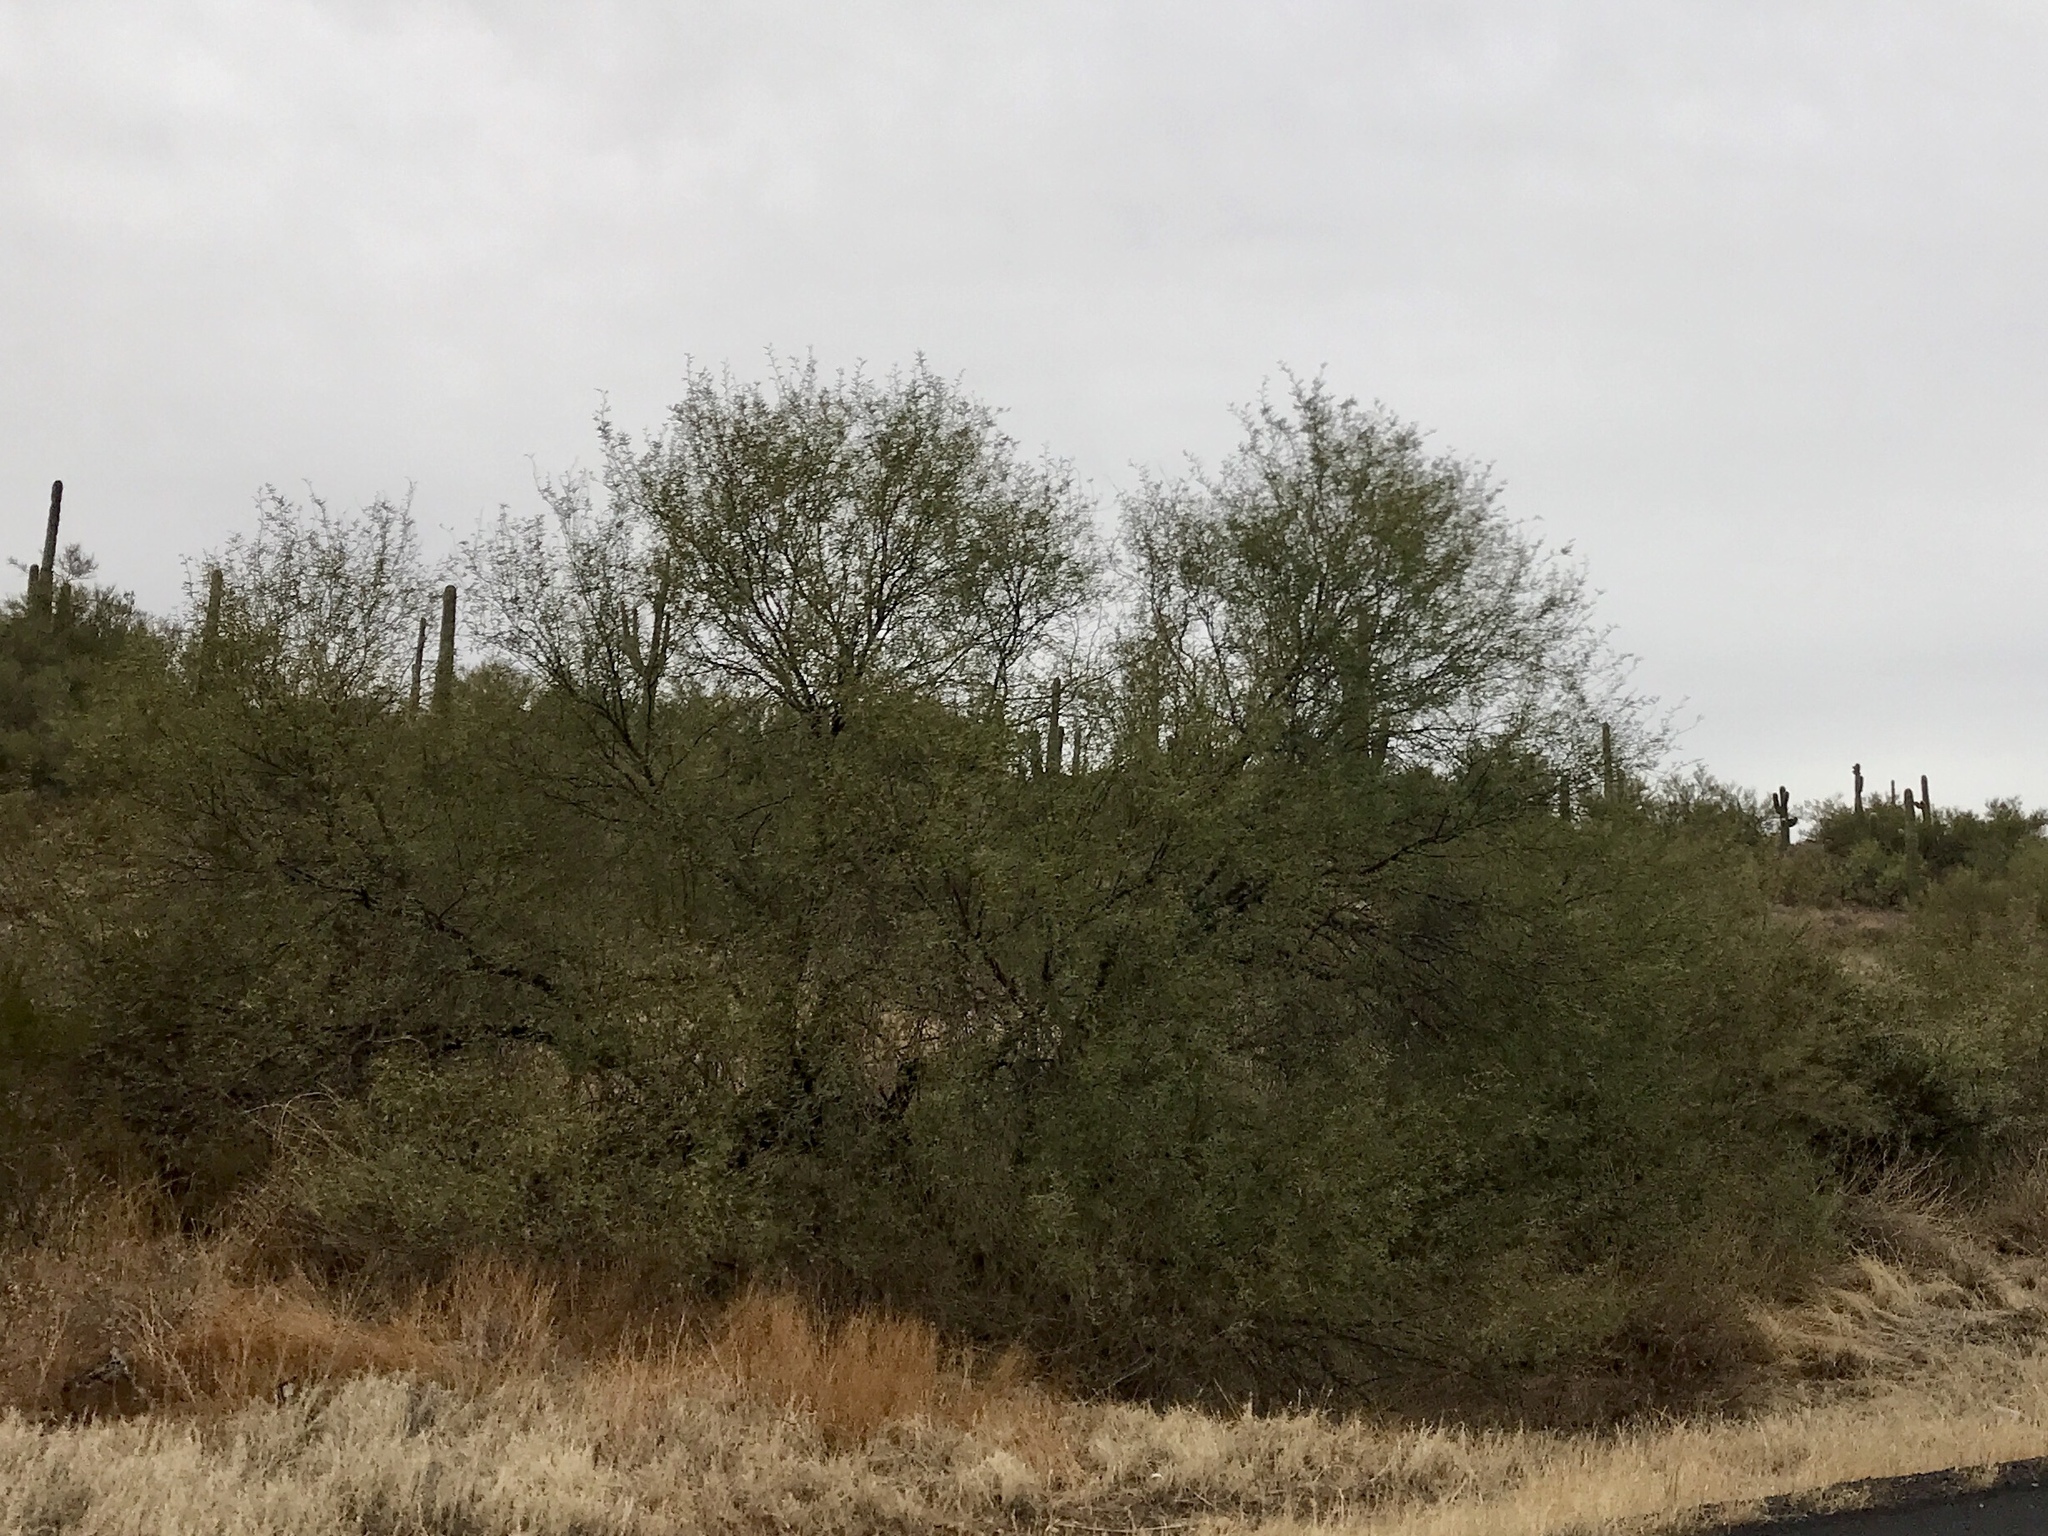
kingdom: Plantae
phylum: Tracheophyta
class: Magnoliopsida
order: Fabales
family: Fabaceae
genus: Olneya
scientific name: Olneya tesota
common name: Desert ironwood
